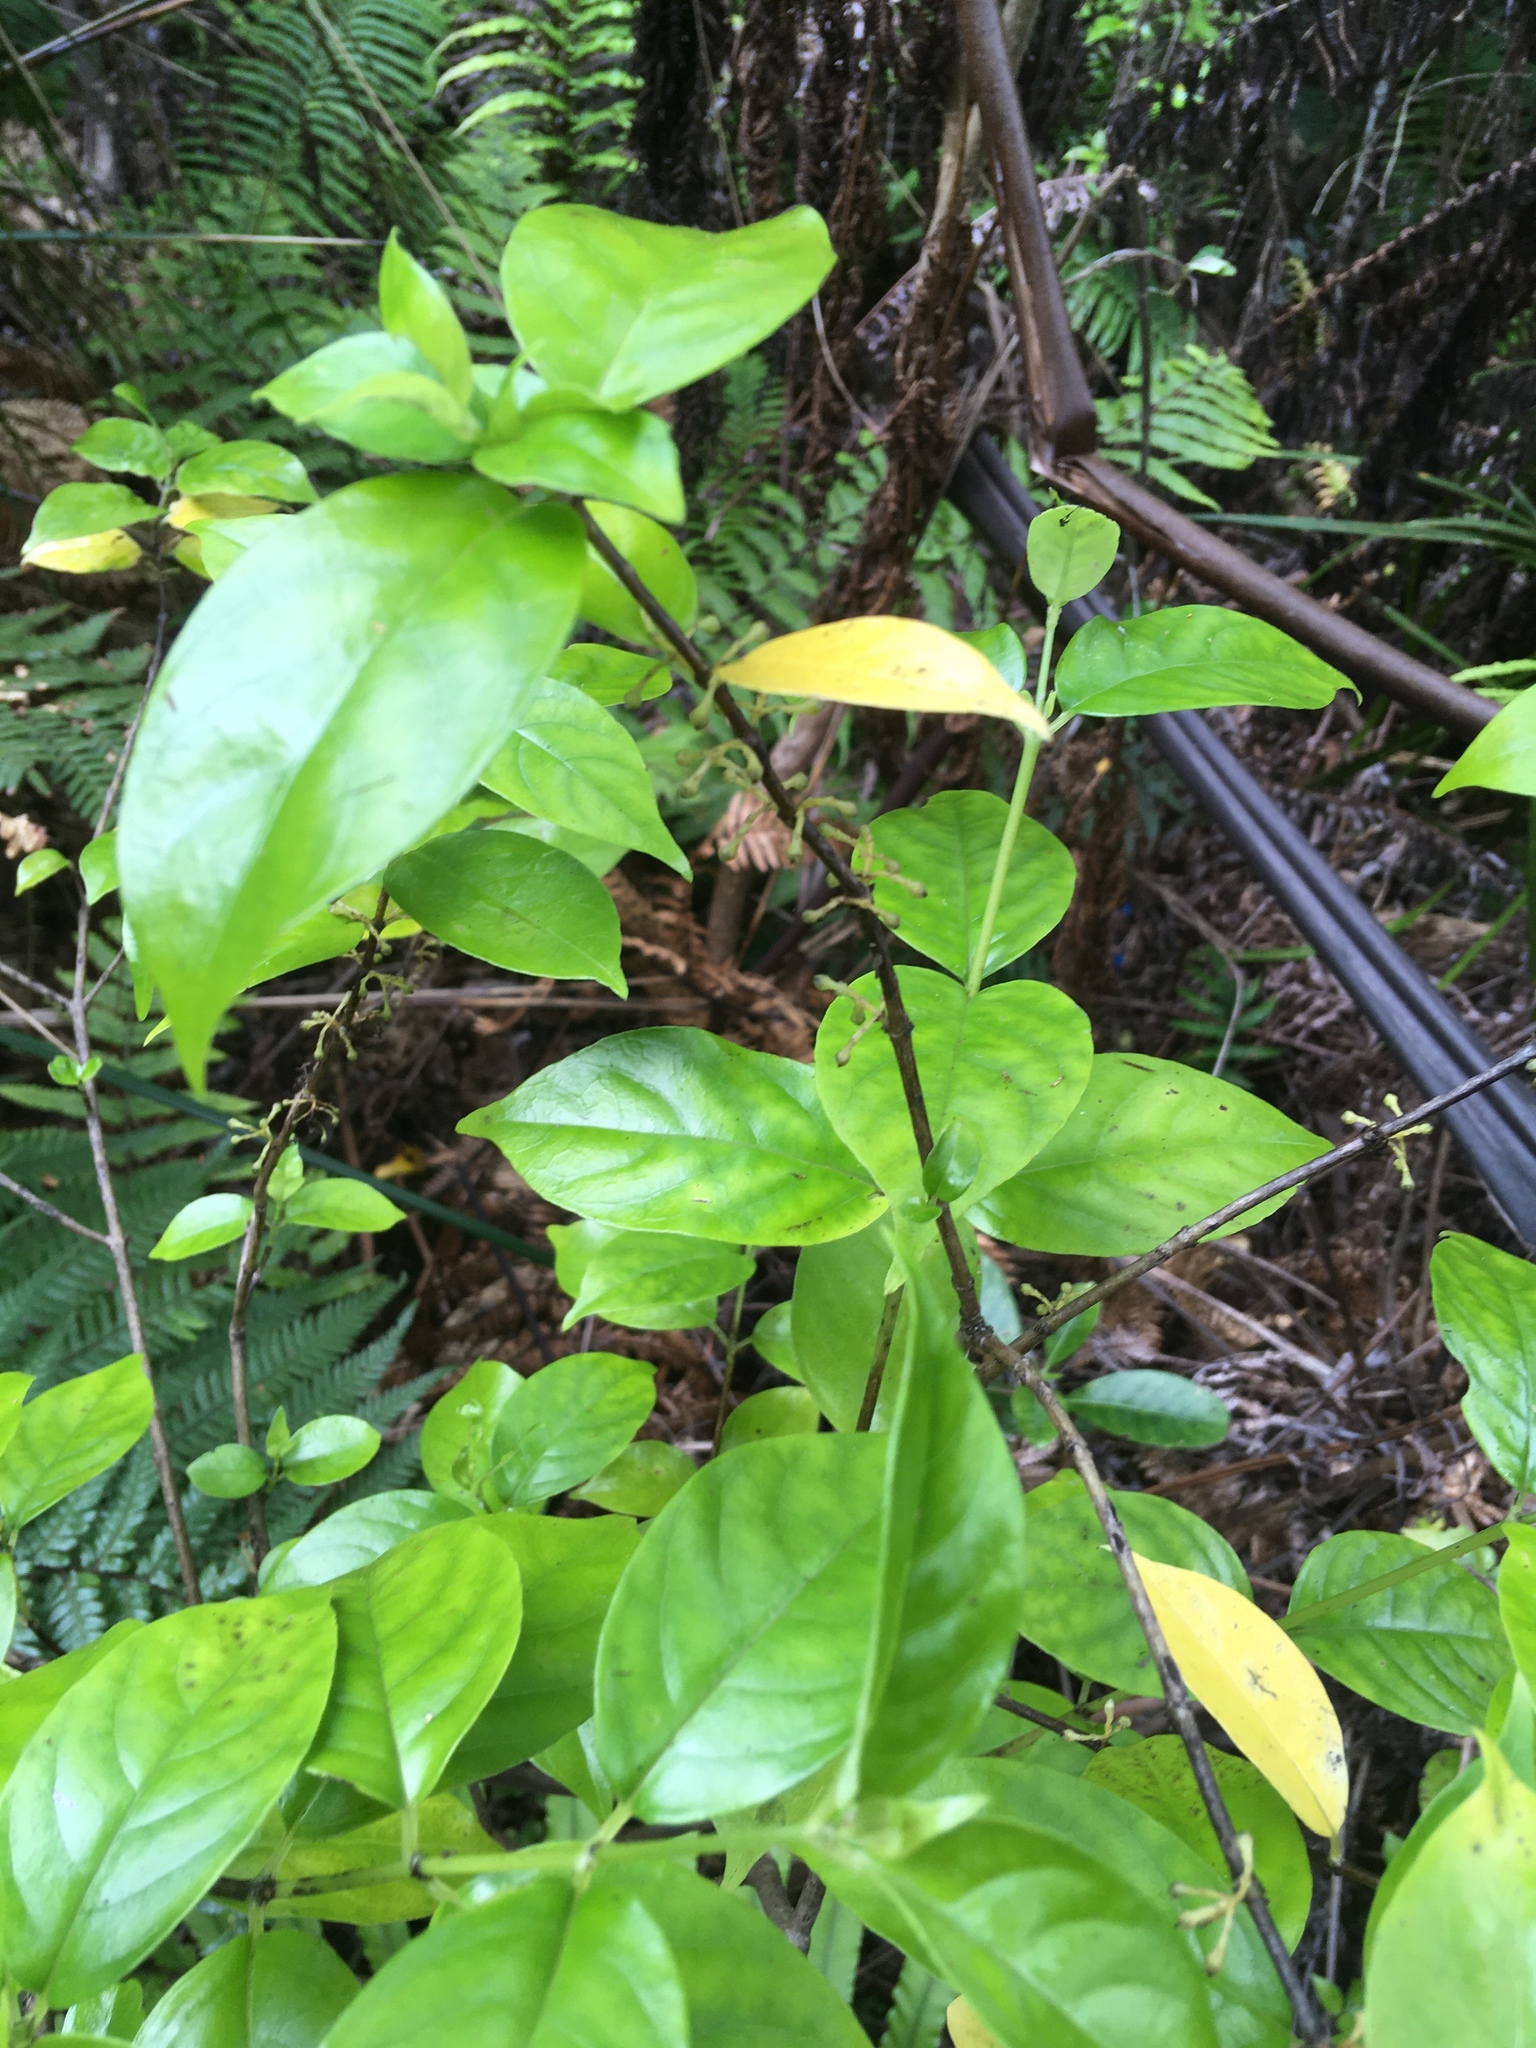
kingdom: Plantae
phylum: Tracheophyta
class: Magnoliopsida
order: Gentianales
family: Loganiaceae
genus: Geniostoma
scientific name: Geniostoma ligustrifolium
